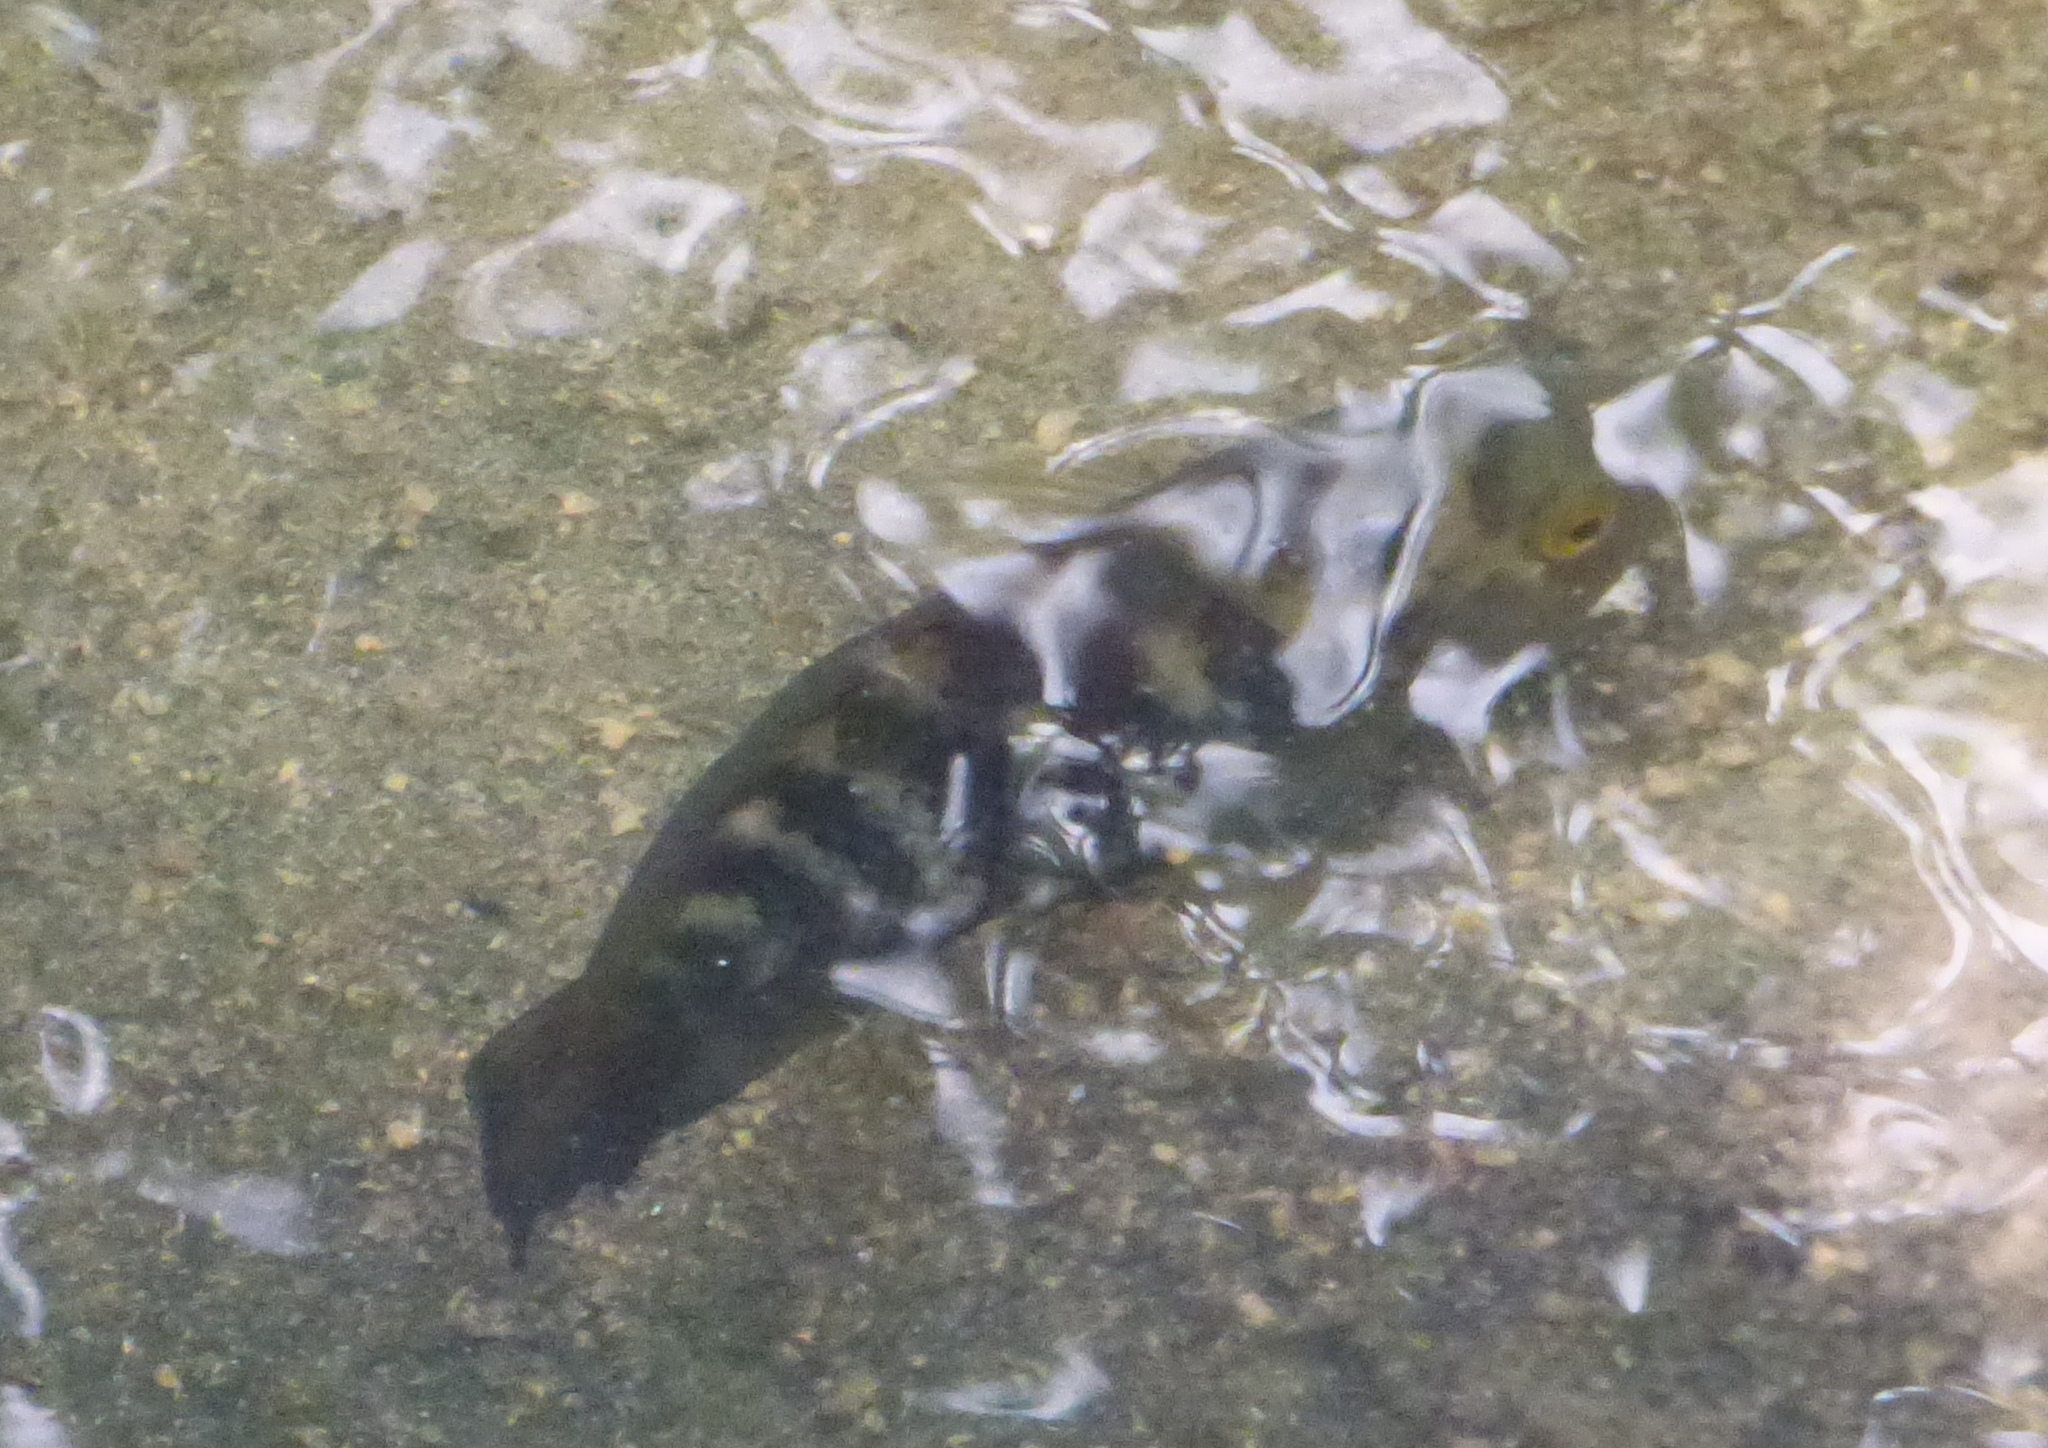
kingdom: Animalia
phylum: Chordata
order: Perciformes
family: Cichlidae
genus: Australoheros
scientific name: Australoheros facetus
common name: Chameleon cichlid
